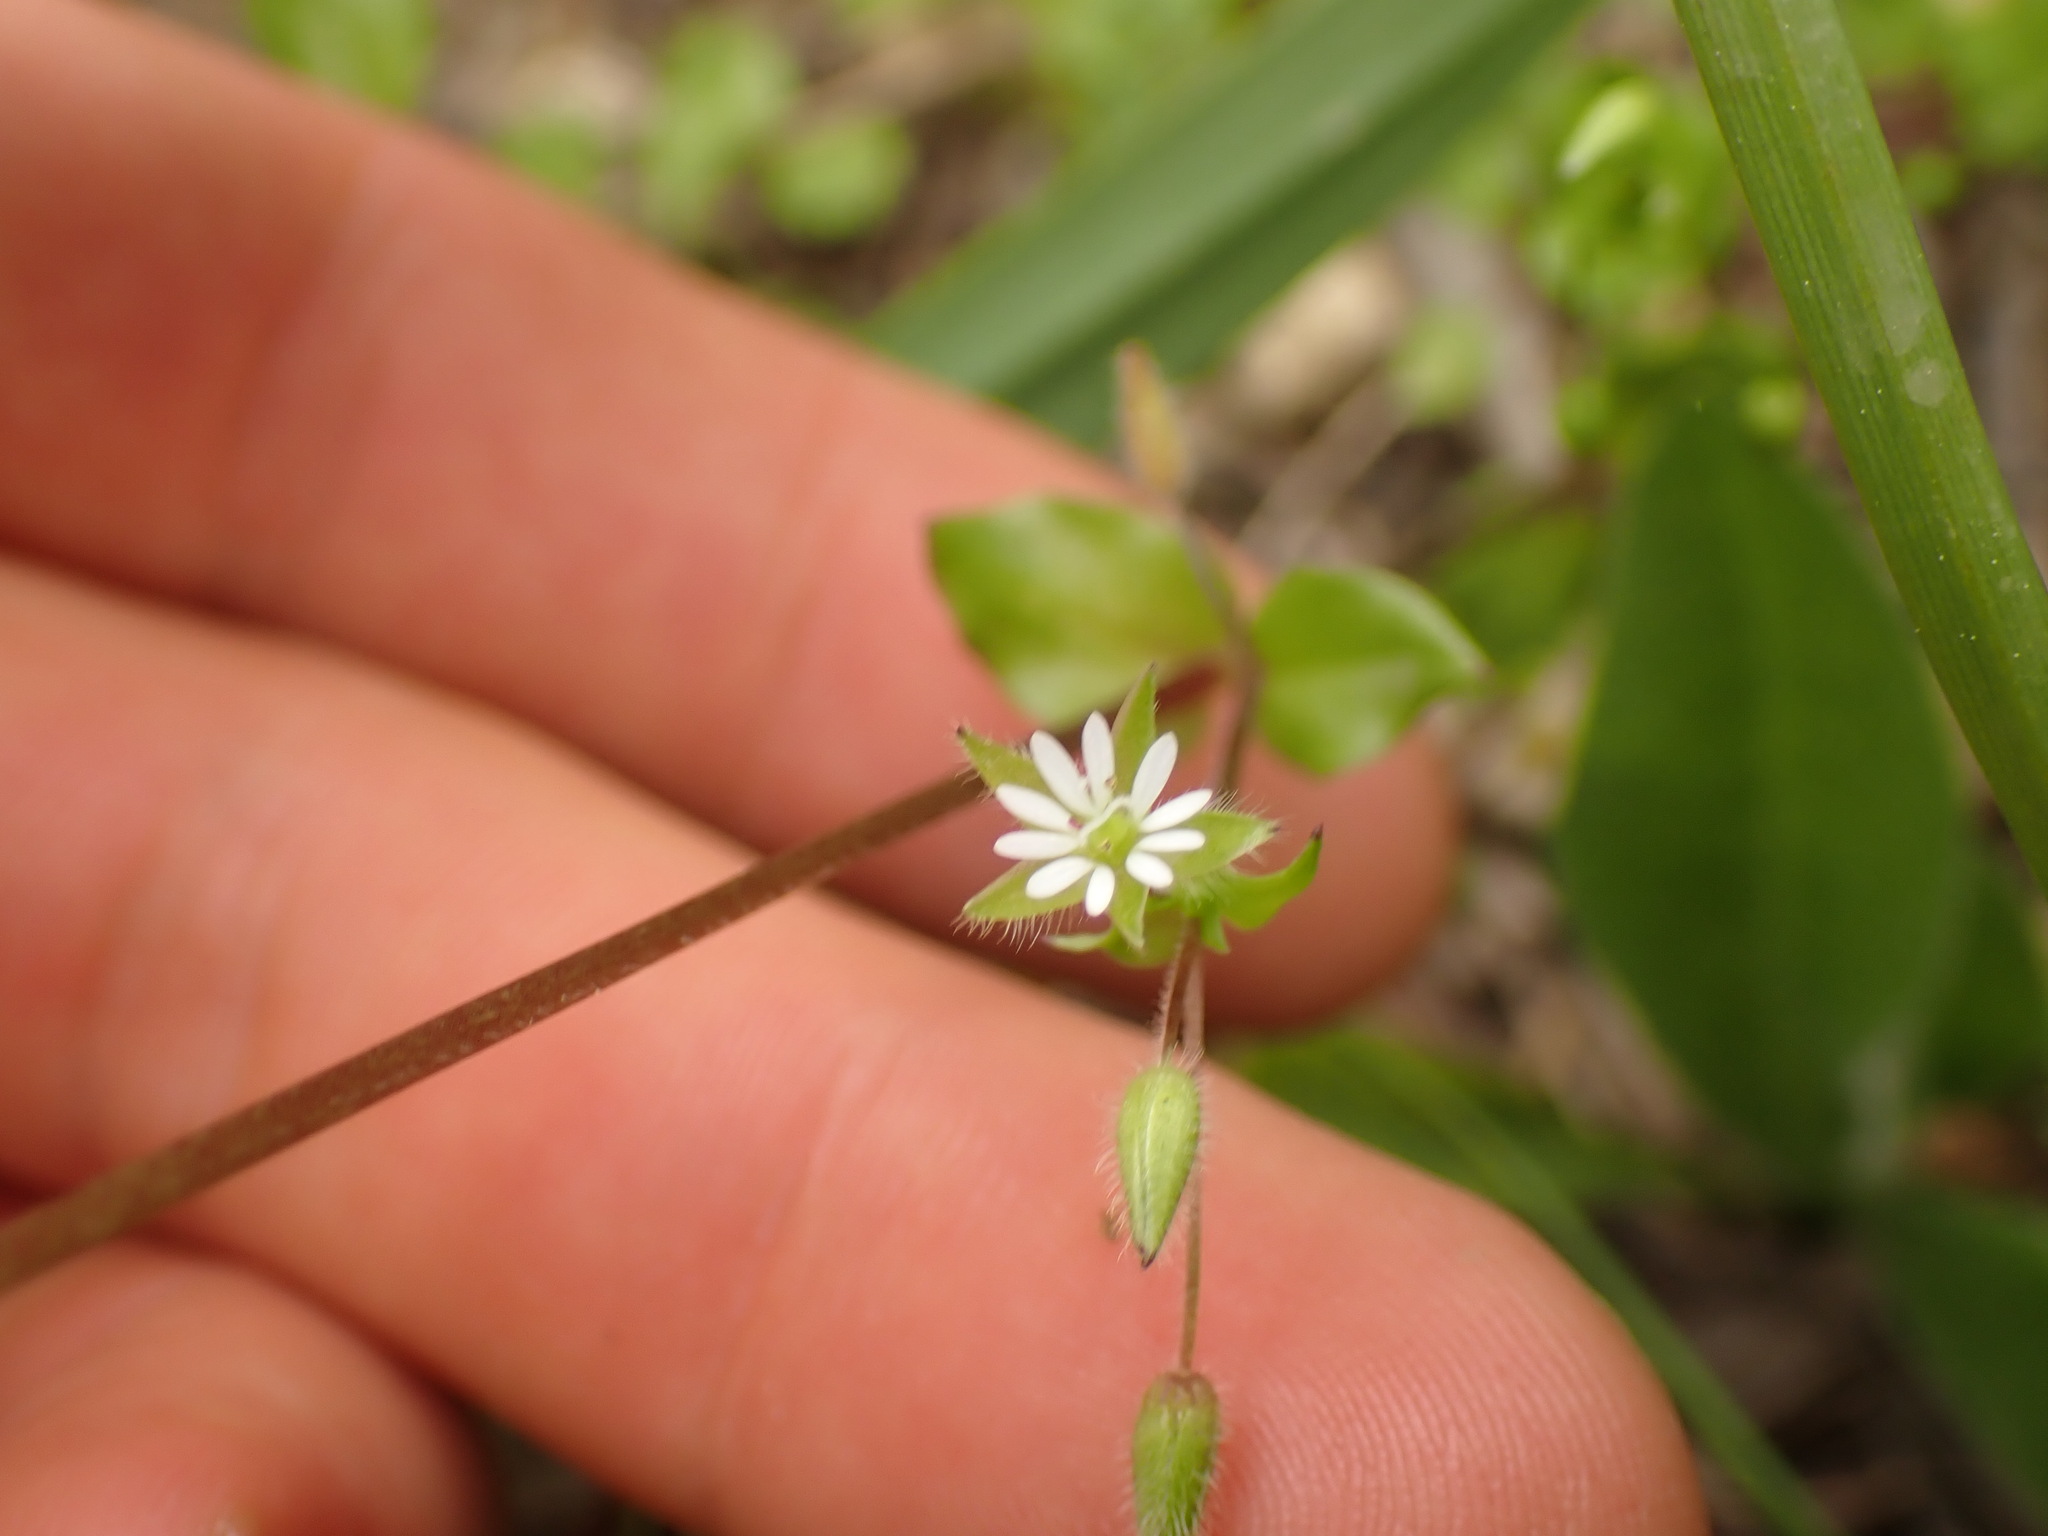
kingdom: Plantae
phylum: Tracheophyta
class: Magnoliopsida
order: Caryophyllales
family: Caryophyllaceae
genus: Stellaria
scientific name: Stellaria media
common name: Common chickweed
